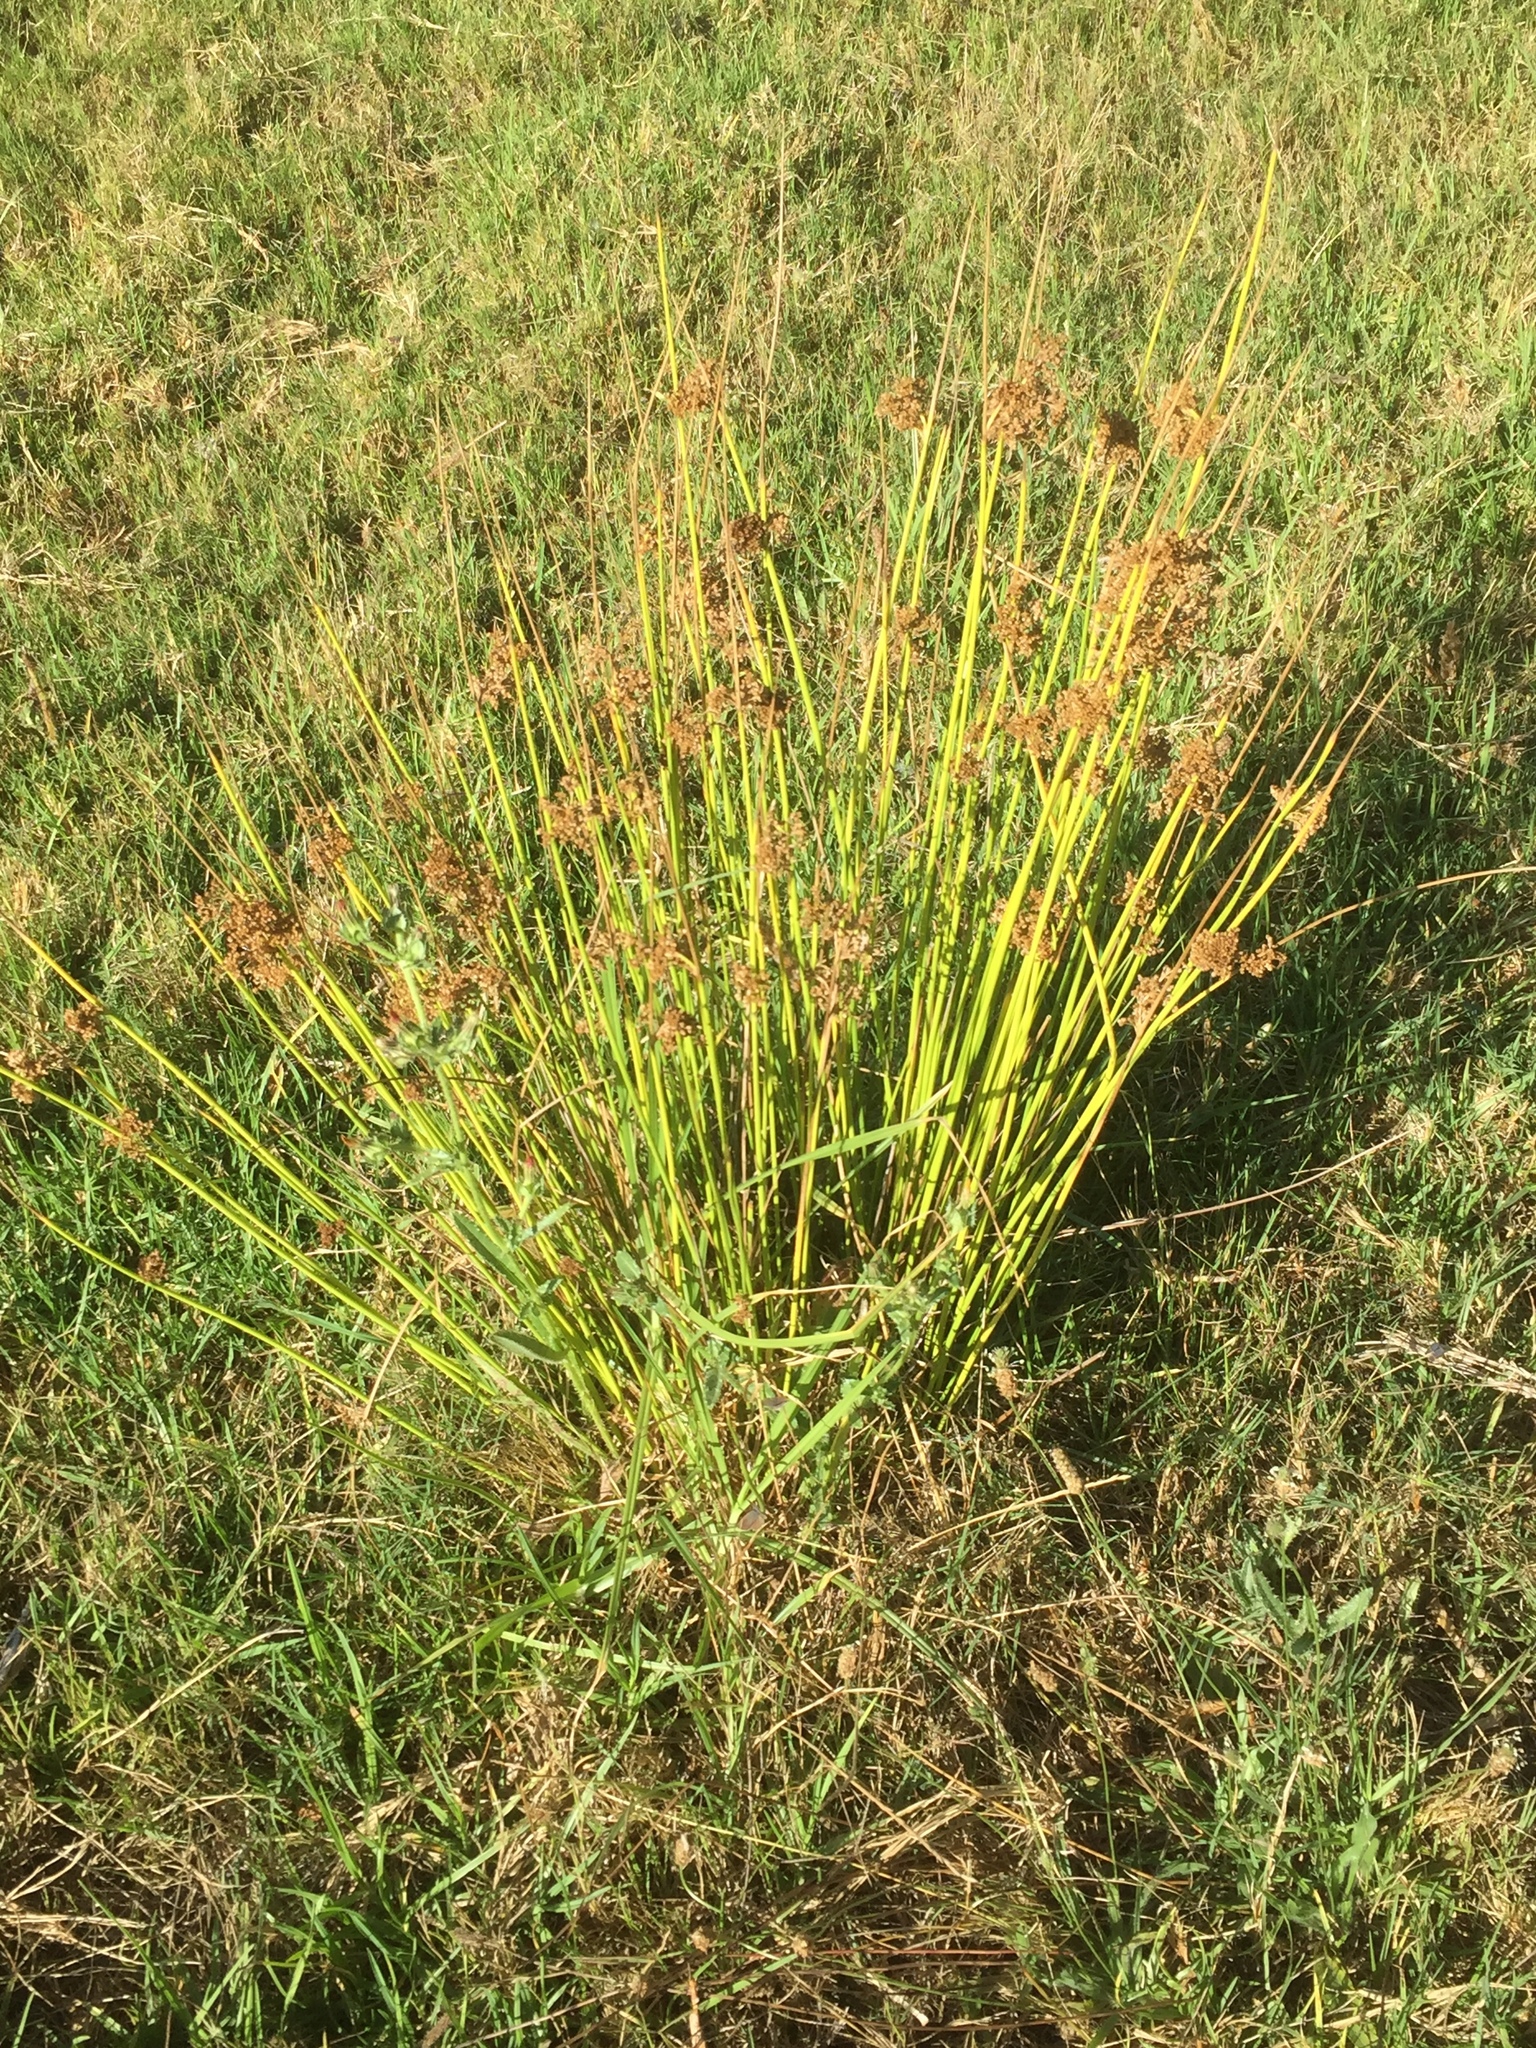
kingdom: Plantae
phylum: Tracheophyta
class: Liliopsida
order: Poales
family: Juncaceae
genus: Juncus
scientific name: Juncus effusus
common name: Soft rush
